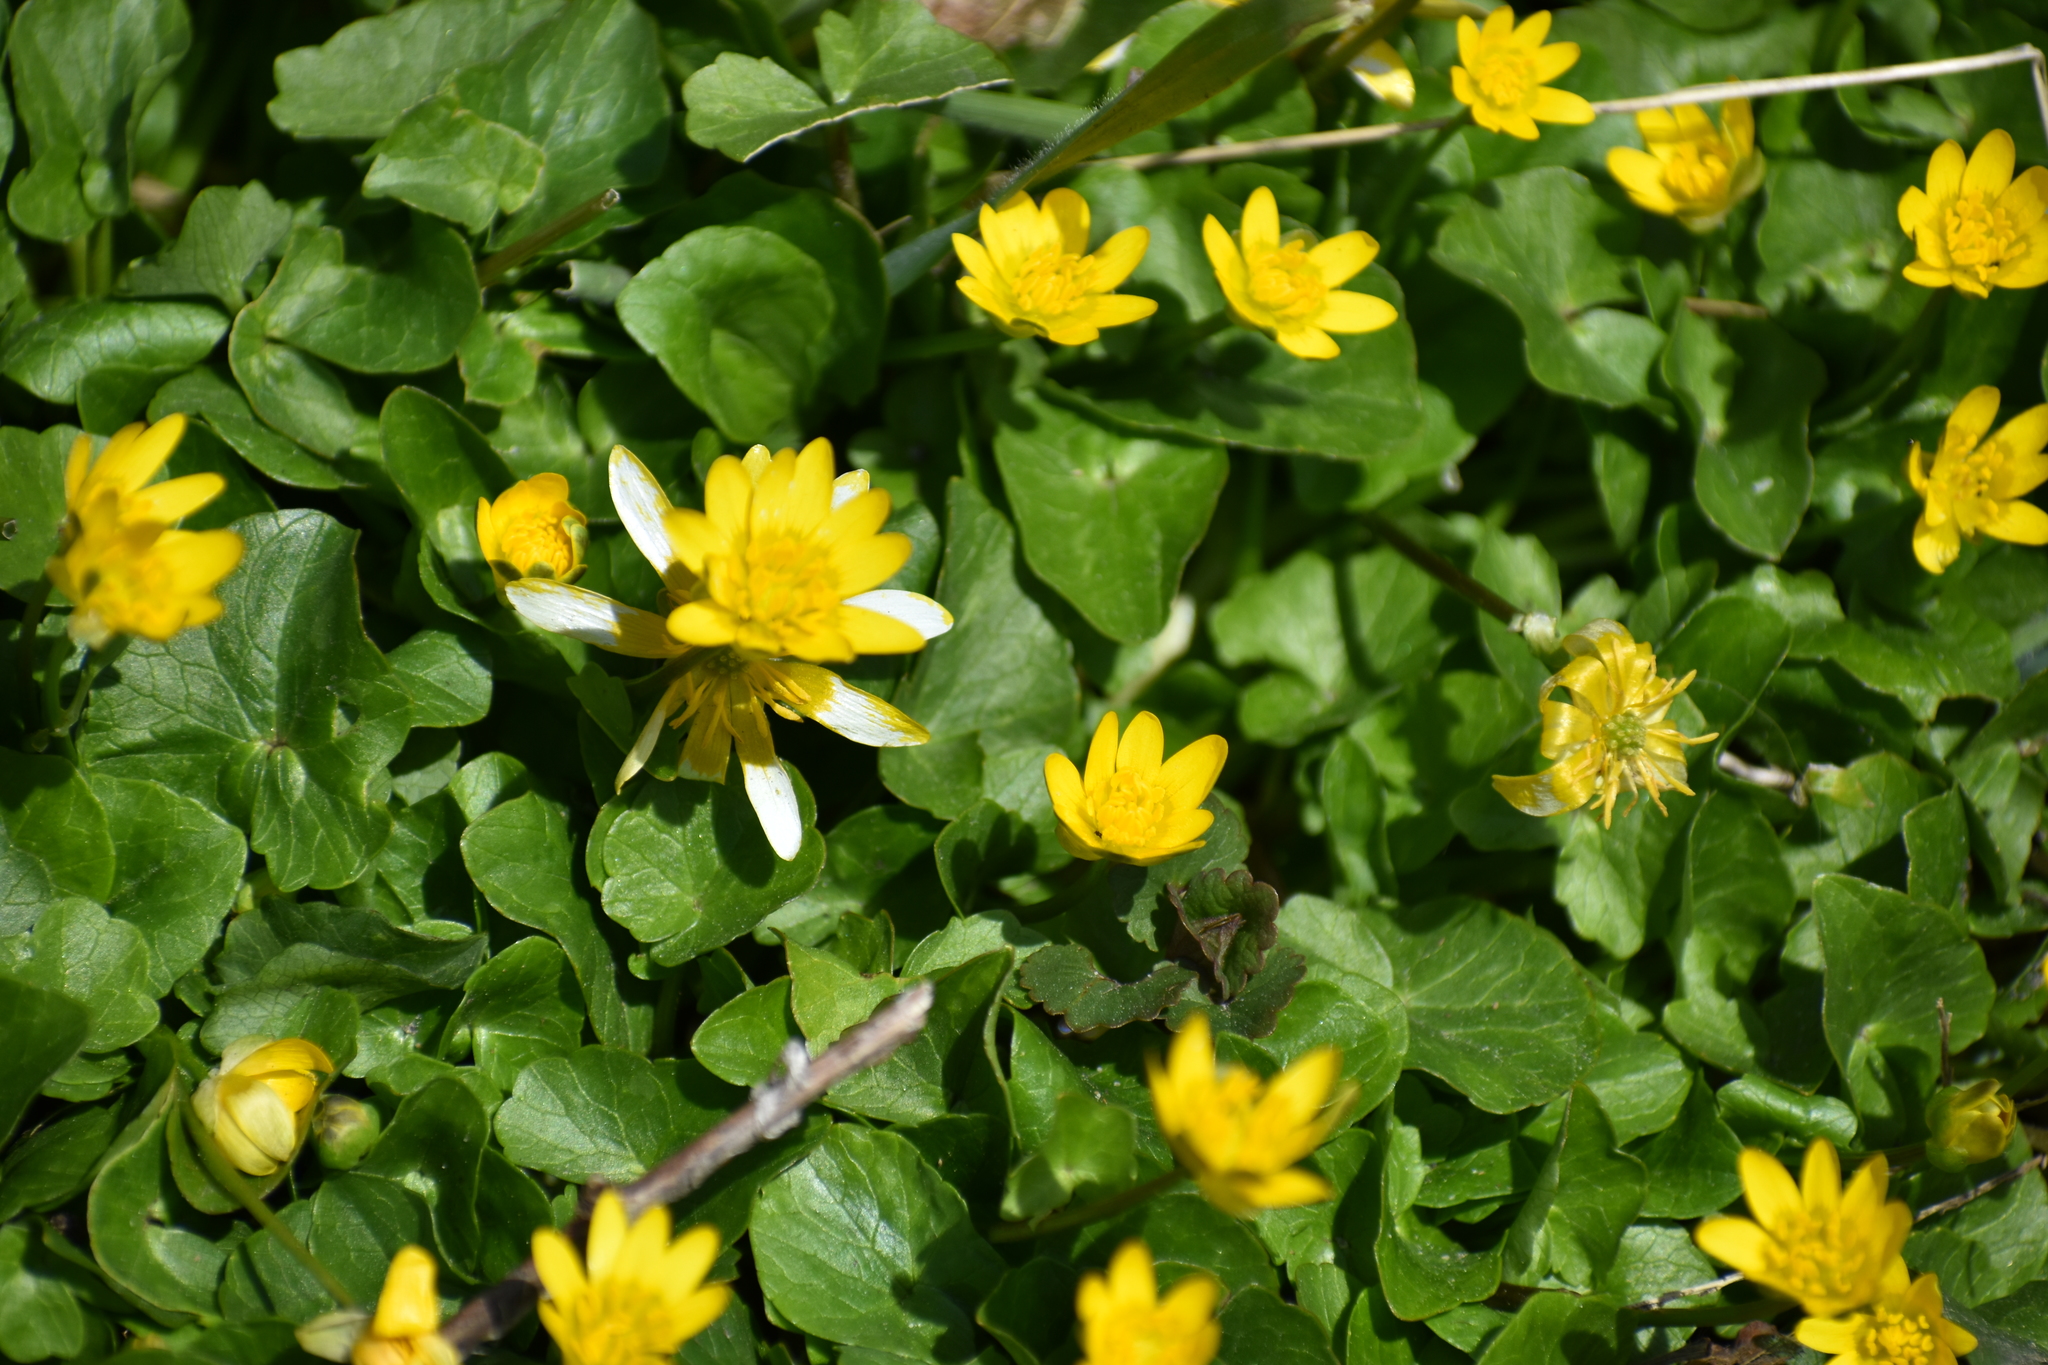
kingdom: Plantae
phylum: Tracheophyta
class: Magnoliopsida
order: Ranunculales
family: Ranunculaceae
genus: Ficaria
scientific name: Ficaria verna
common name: Lesser celandine
